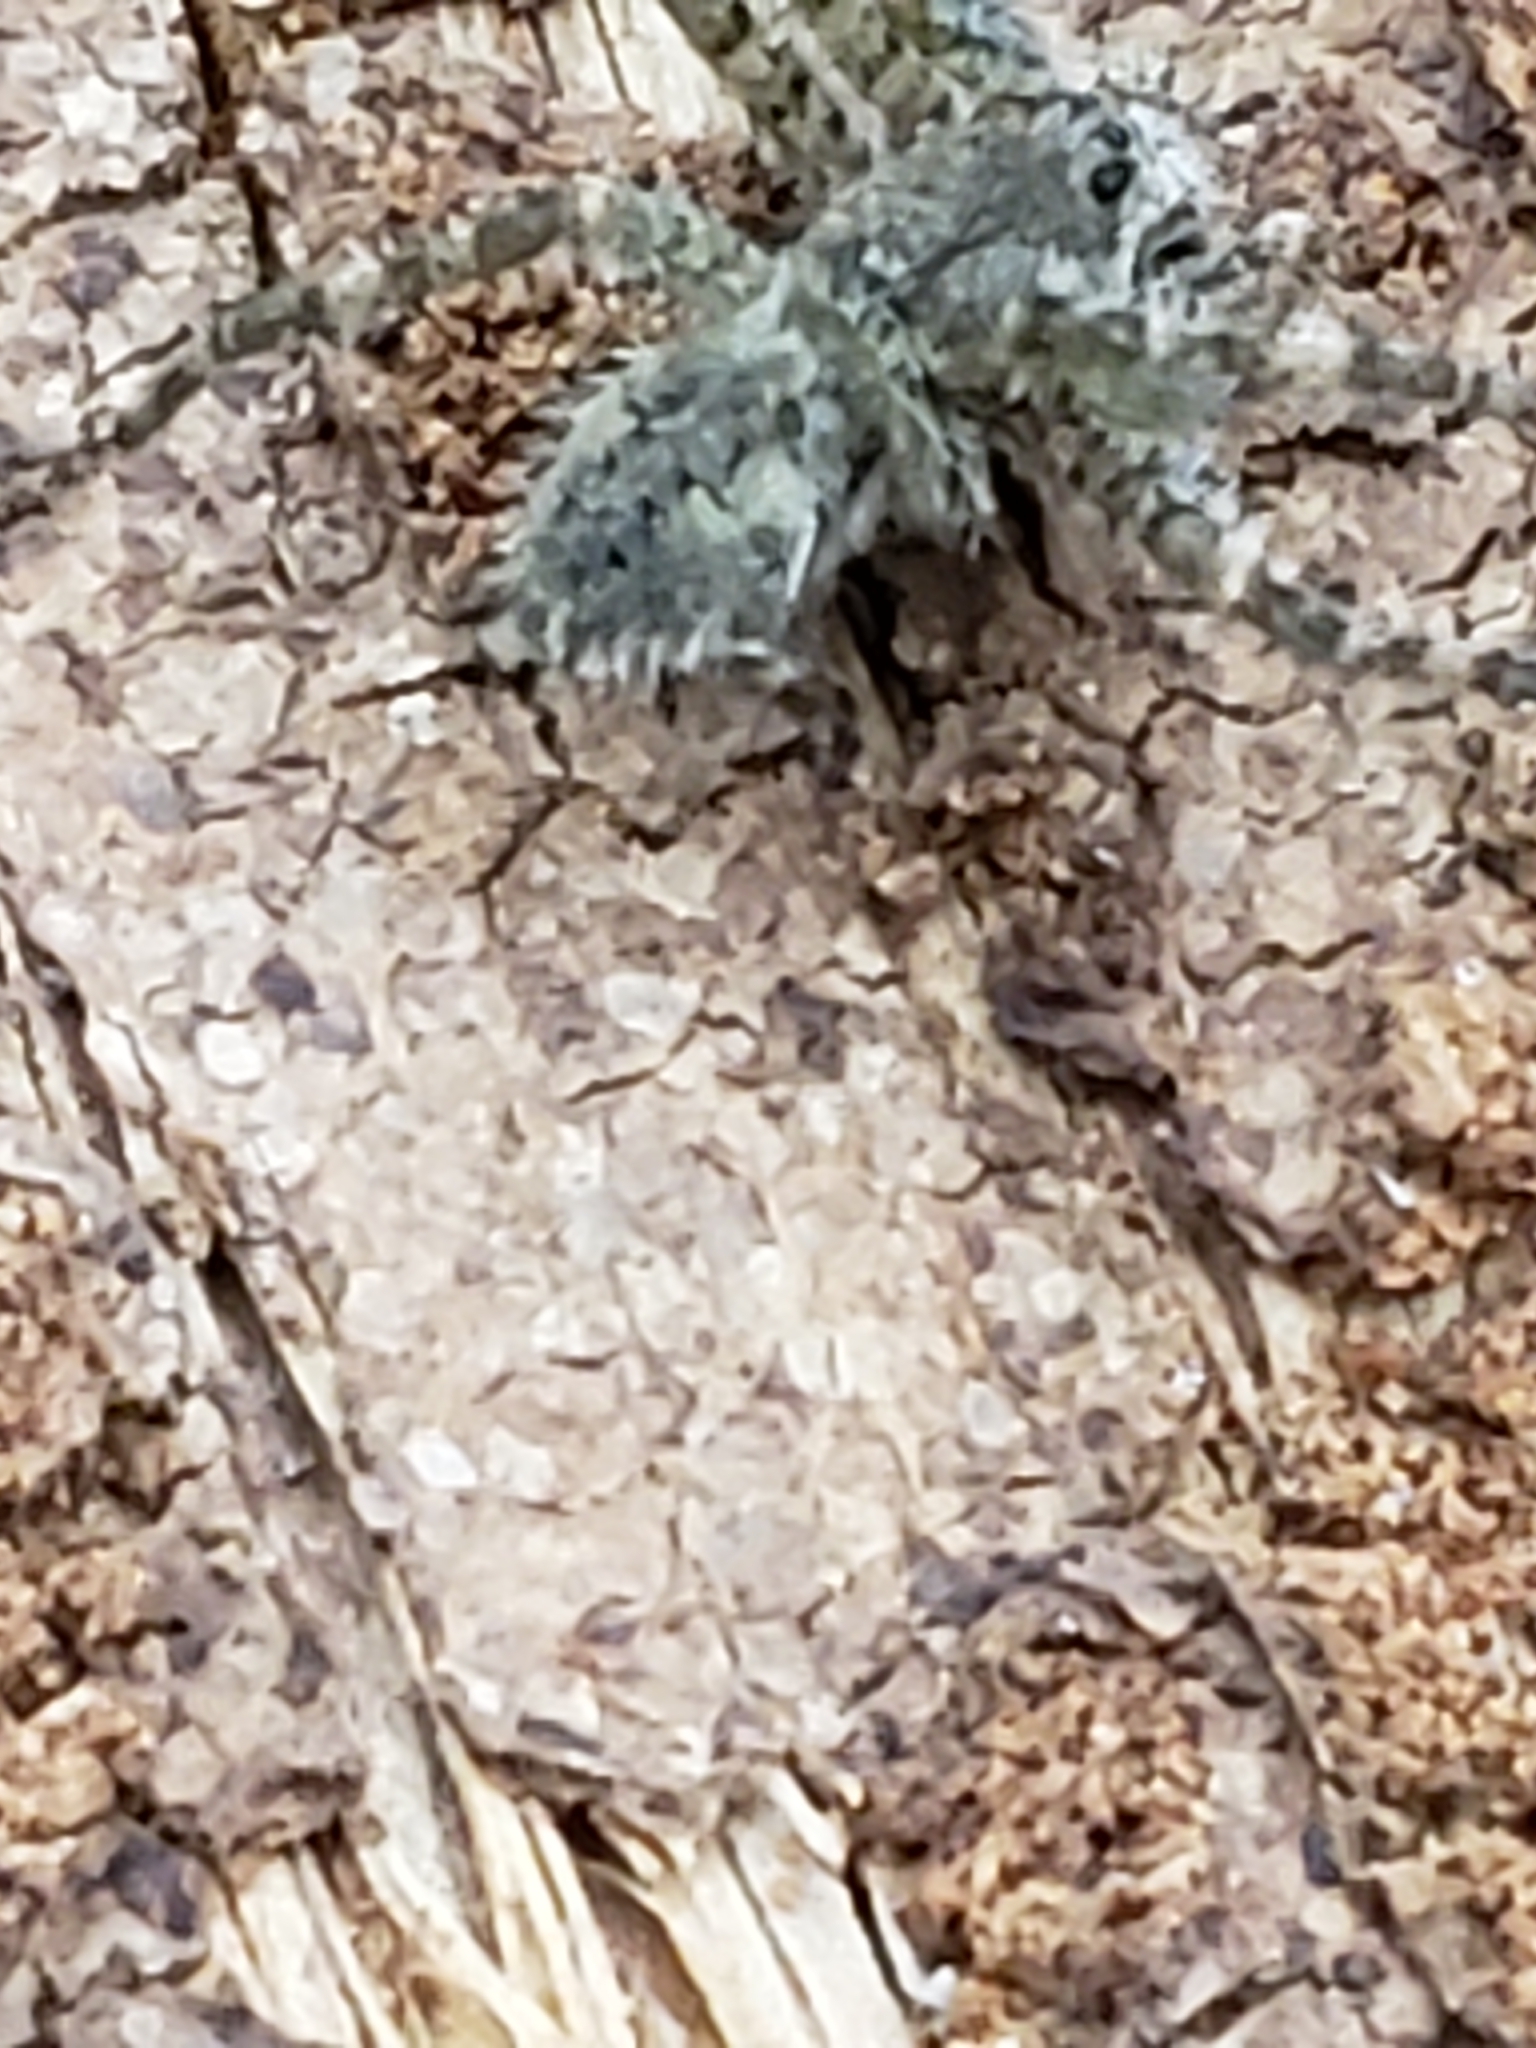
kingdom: Animalia
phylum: Arthropoda
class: Arachnida
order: Araneae
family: Pisauridae
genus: Dolomedes
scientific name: Dolomedes albineus
